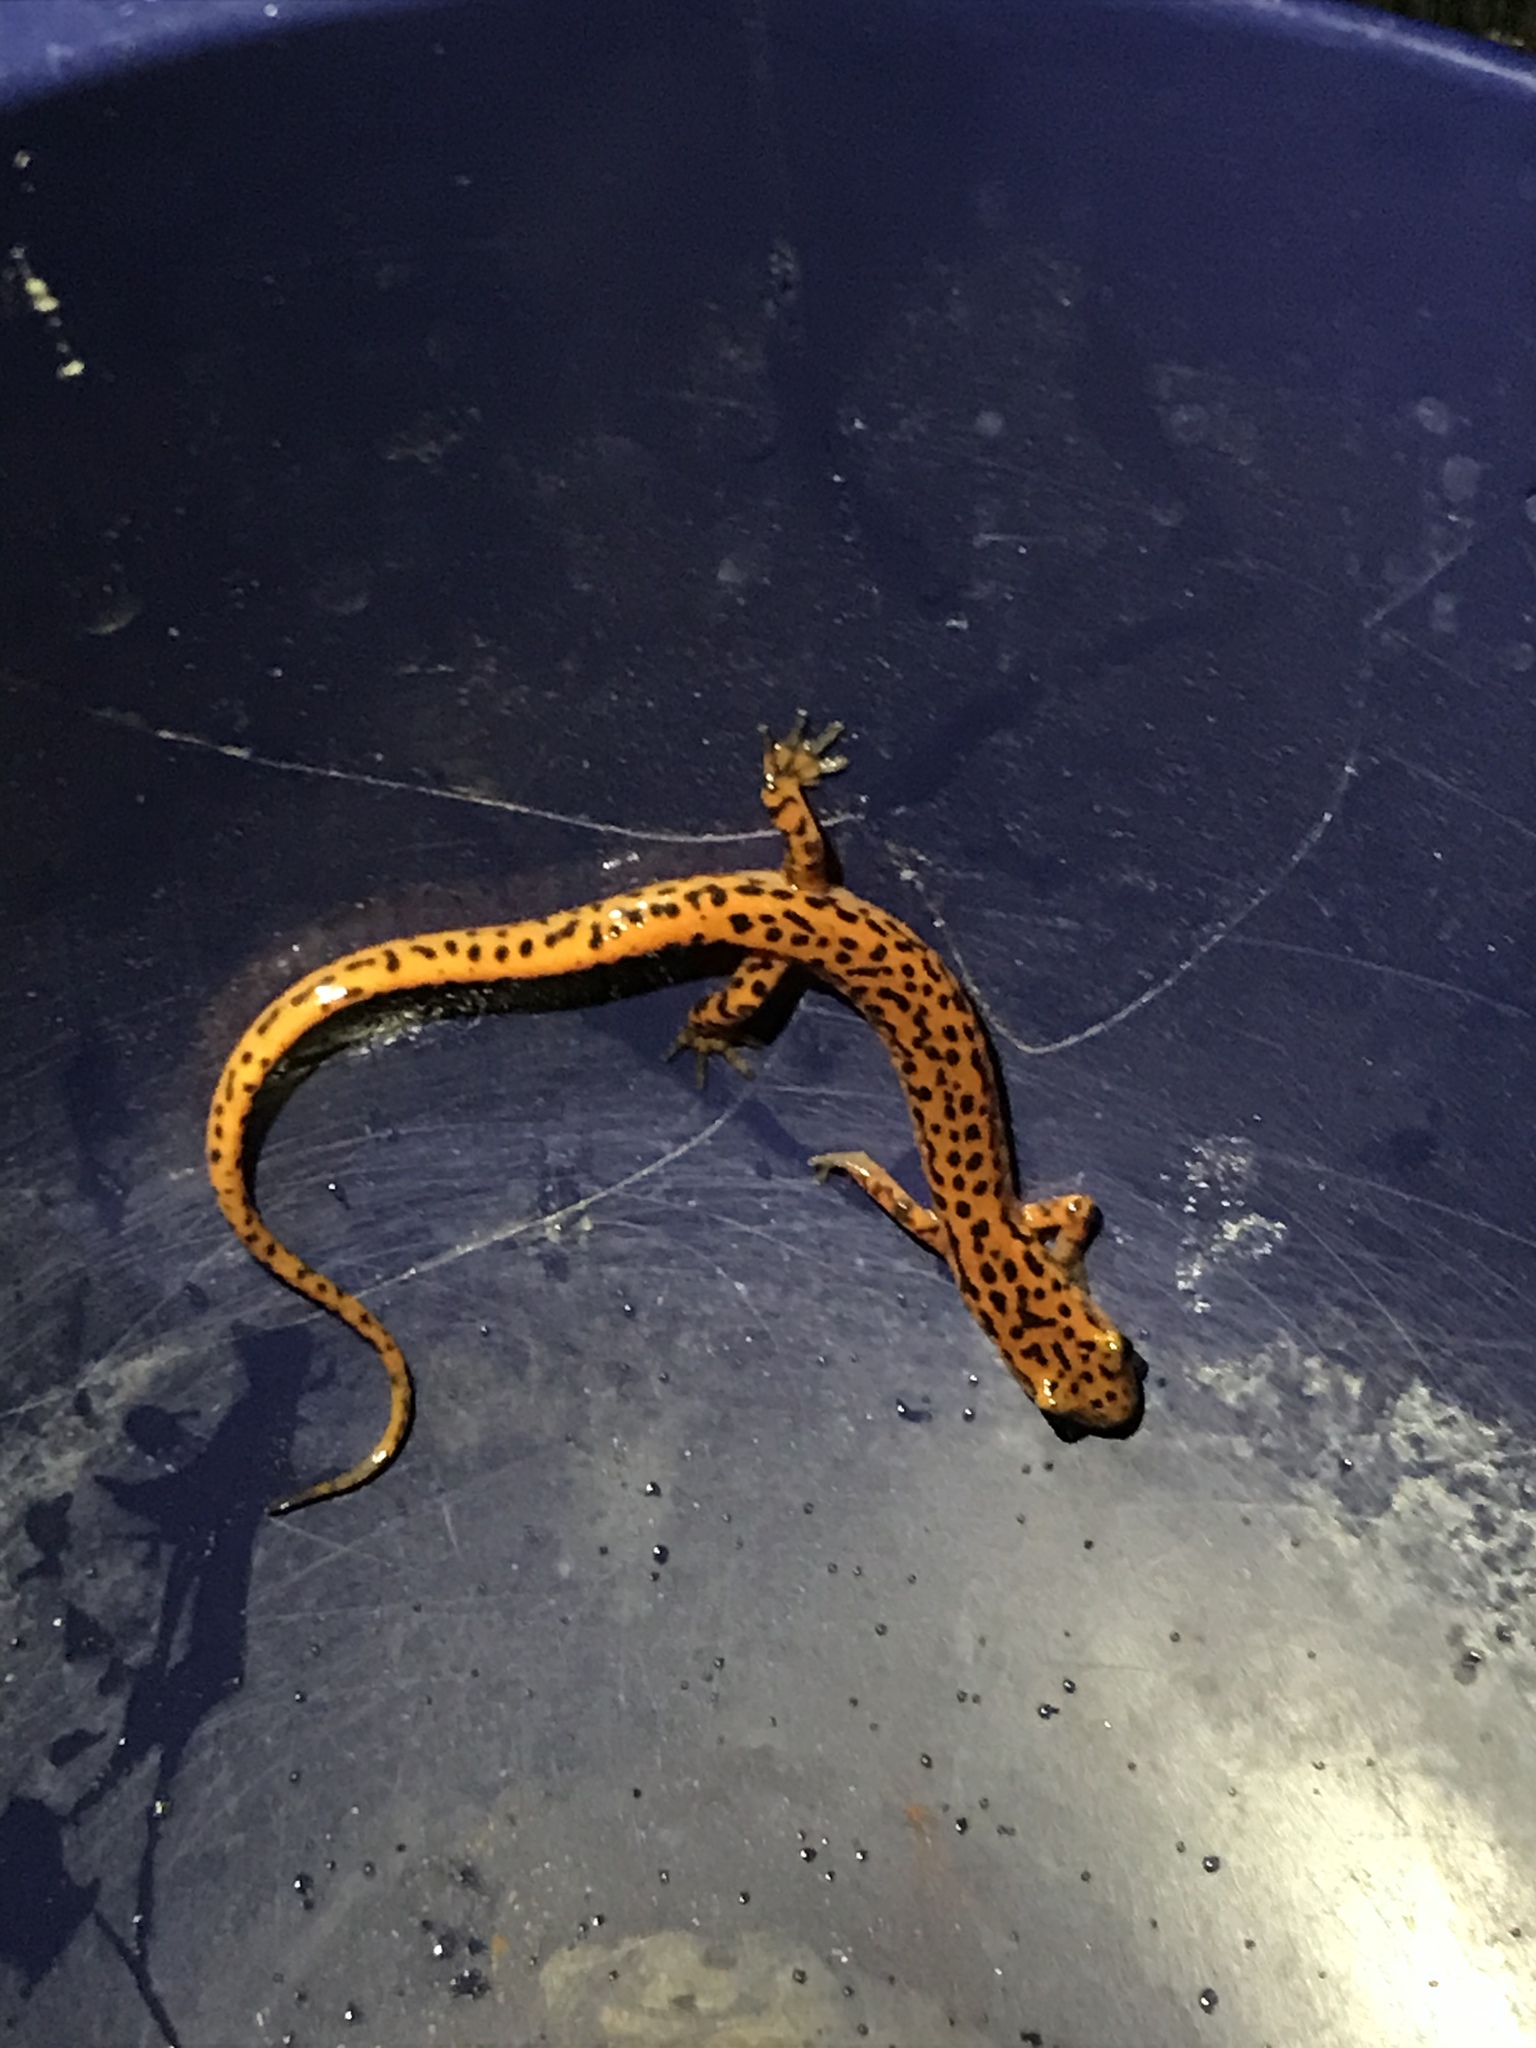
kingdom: Animalia
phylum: Chordata
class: Amphibia
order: Caudata
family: Plethodontidae
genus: Eurycea
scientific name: Eurycea lucifuga
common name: Cave salamander
